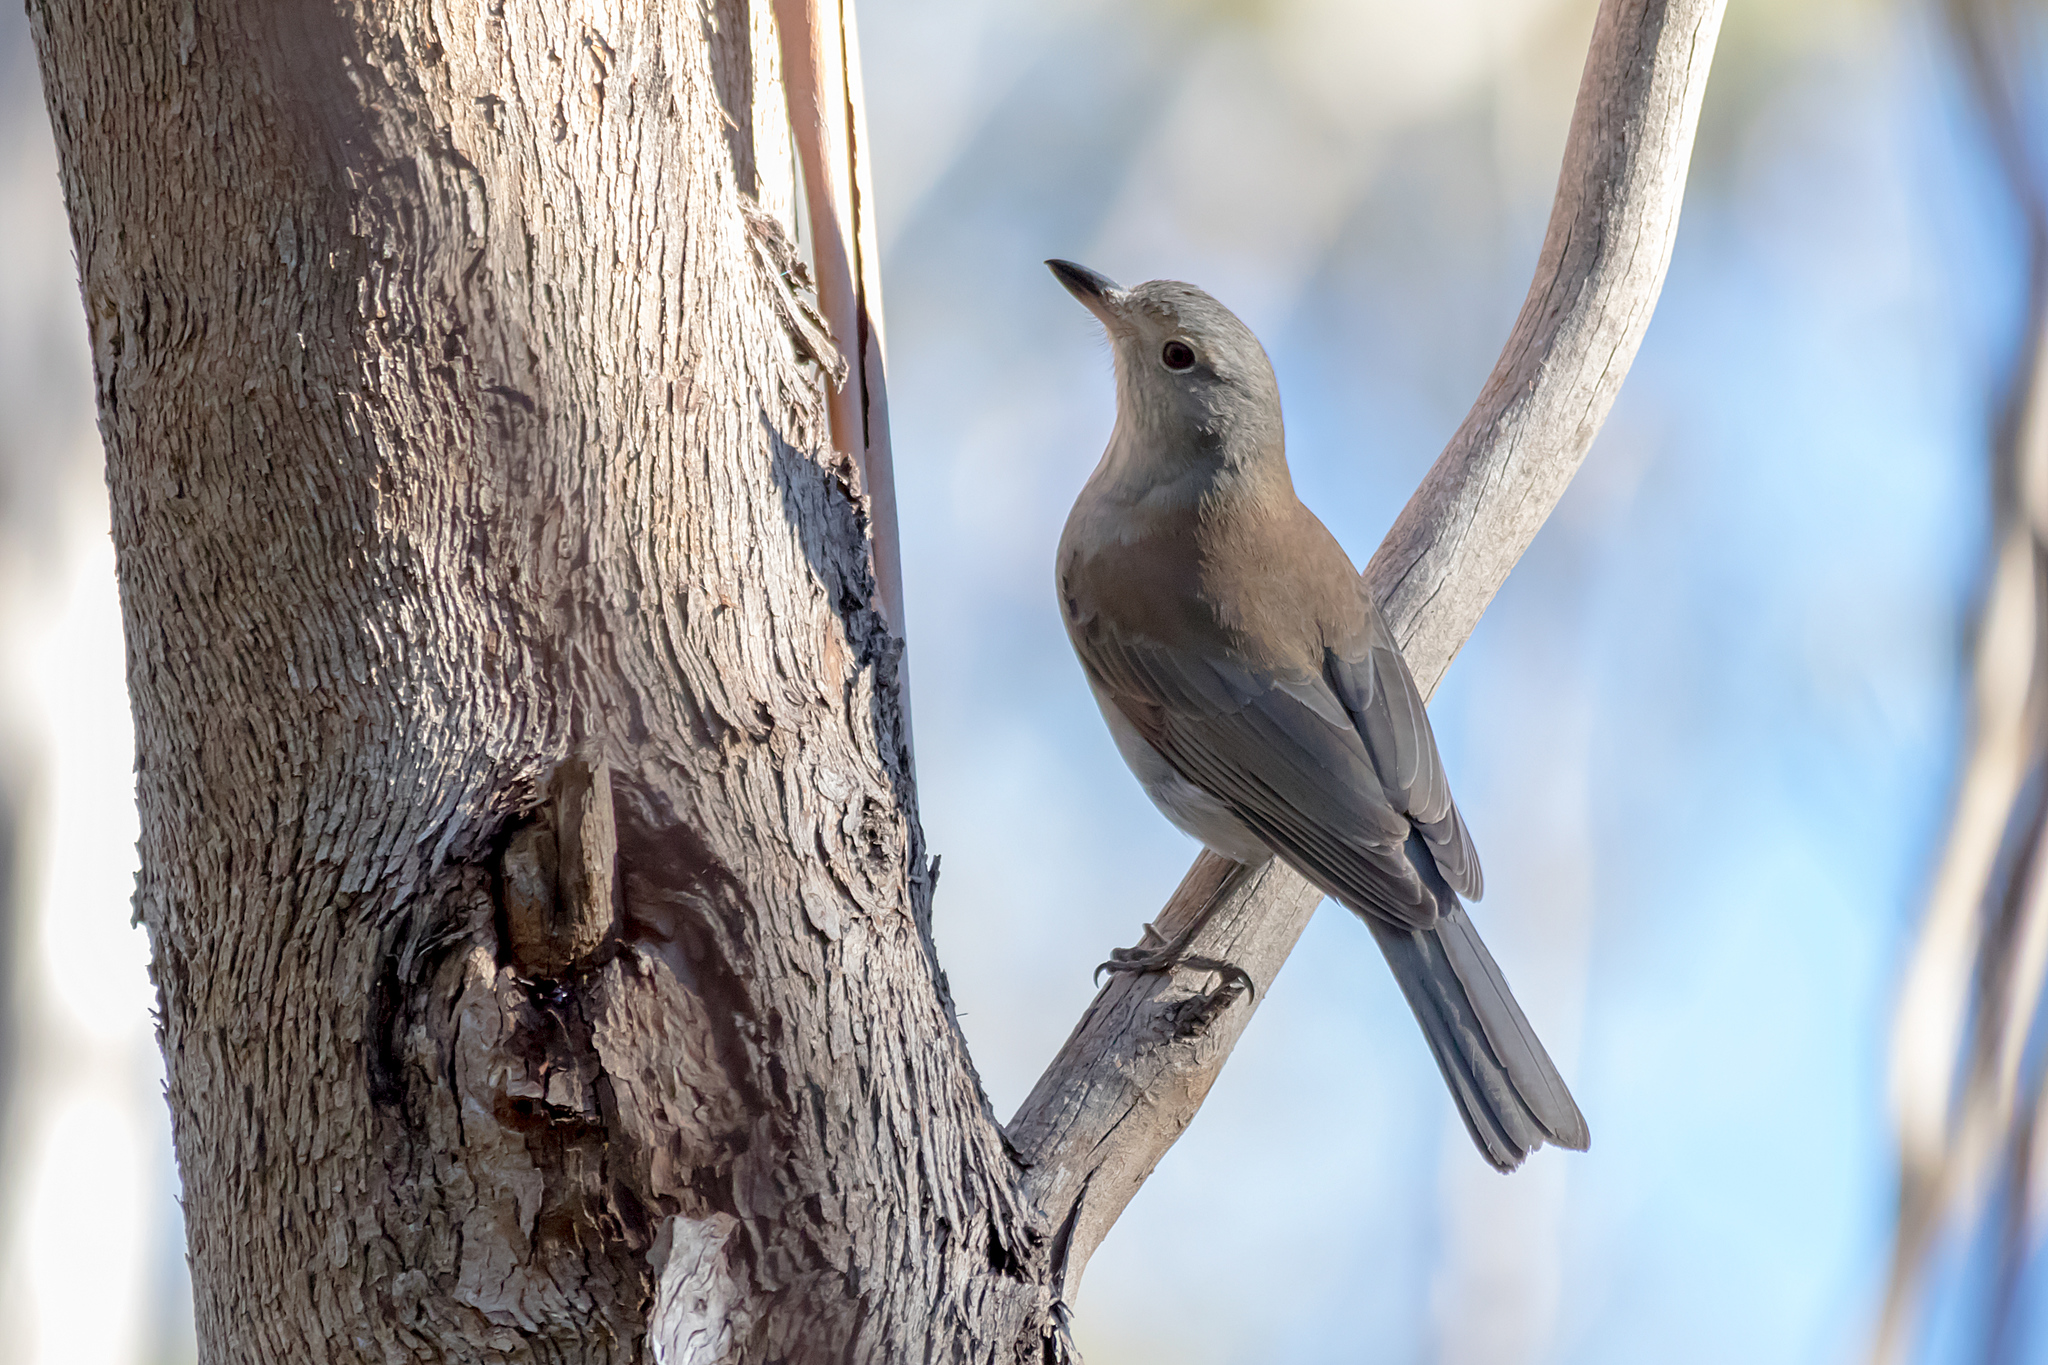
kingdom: Animalia
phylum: Chordata
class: Aves
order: Passeriformes
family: Pachycephalidae
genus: Colluricincla
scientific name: Colluricincla harmonica
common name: Grey shrikethrush
